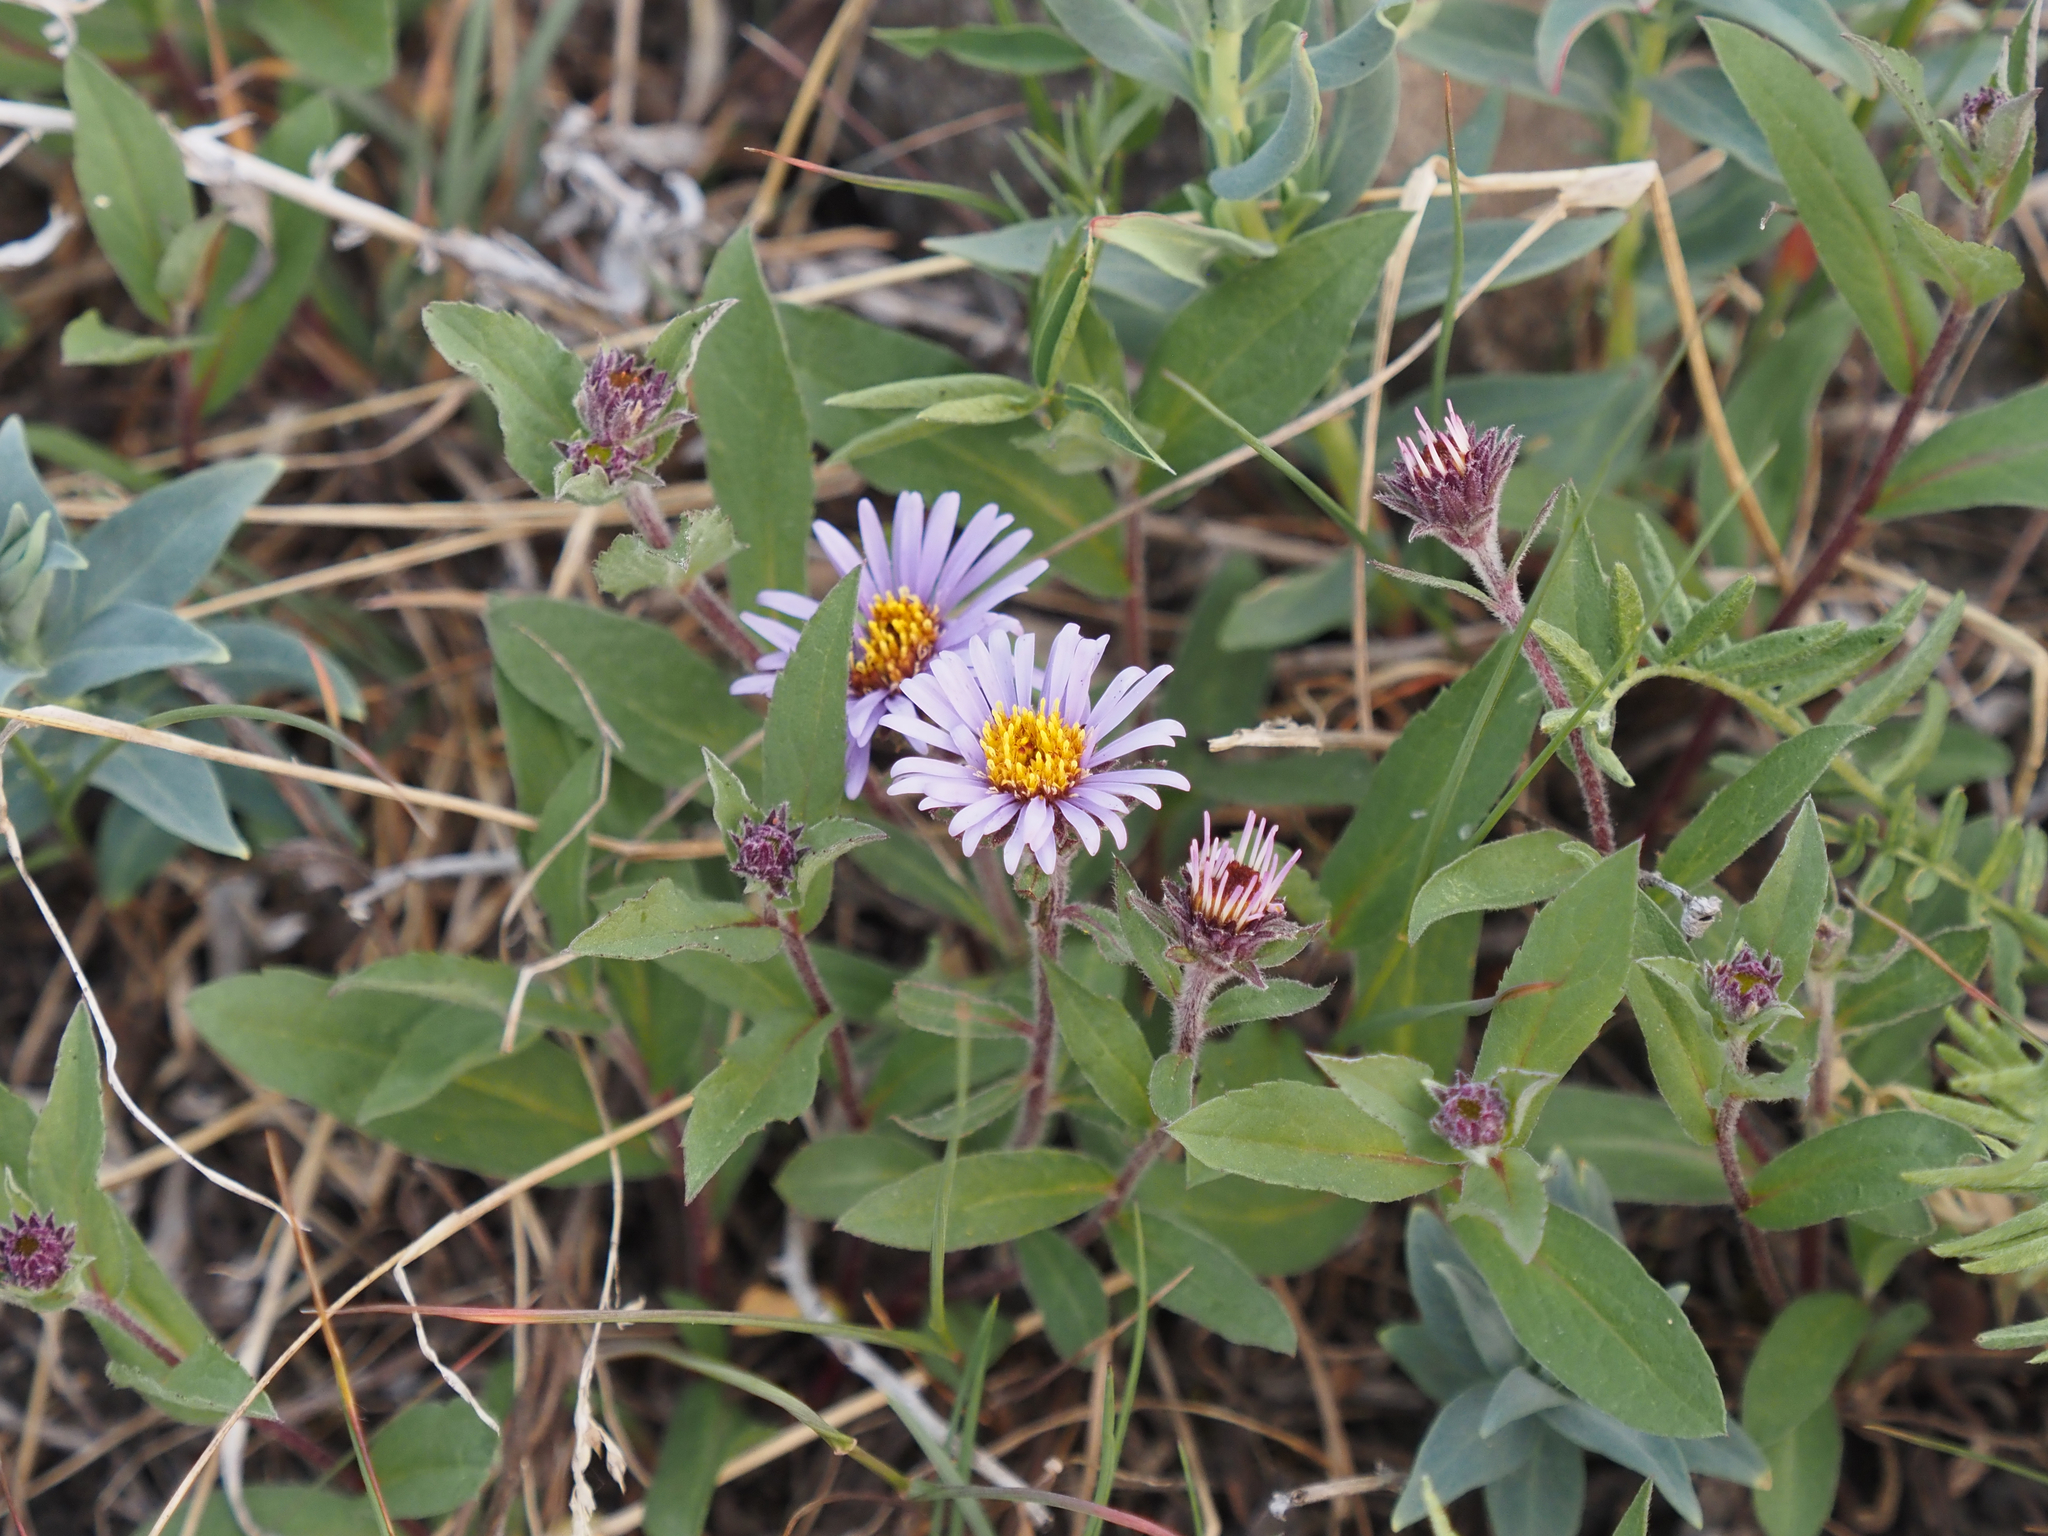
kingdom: Plantae
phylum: Tracheophyta
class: Magnoliopsida
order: Asterales
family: Asteraceae
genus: Eurybia
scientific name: Eurybia sibirica
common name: Arctic aster
